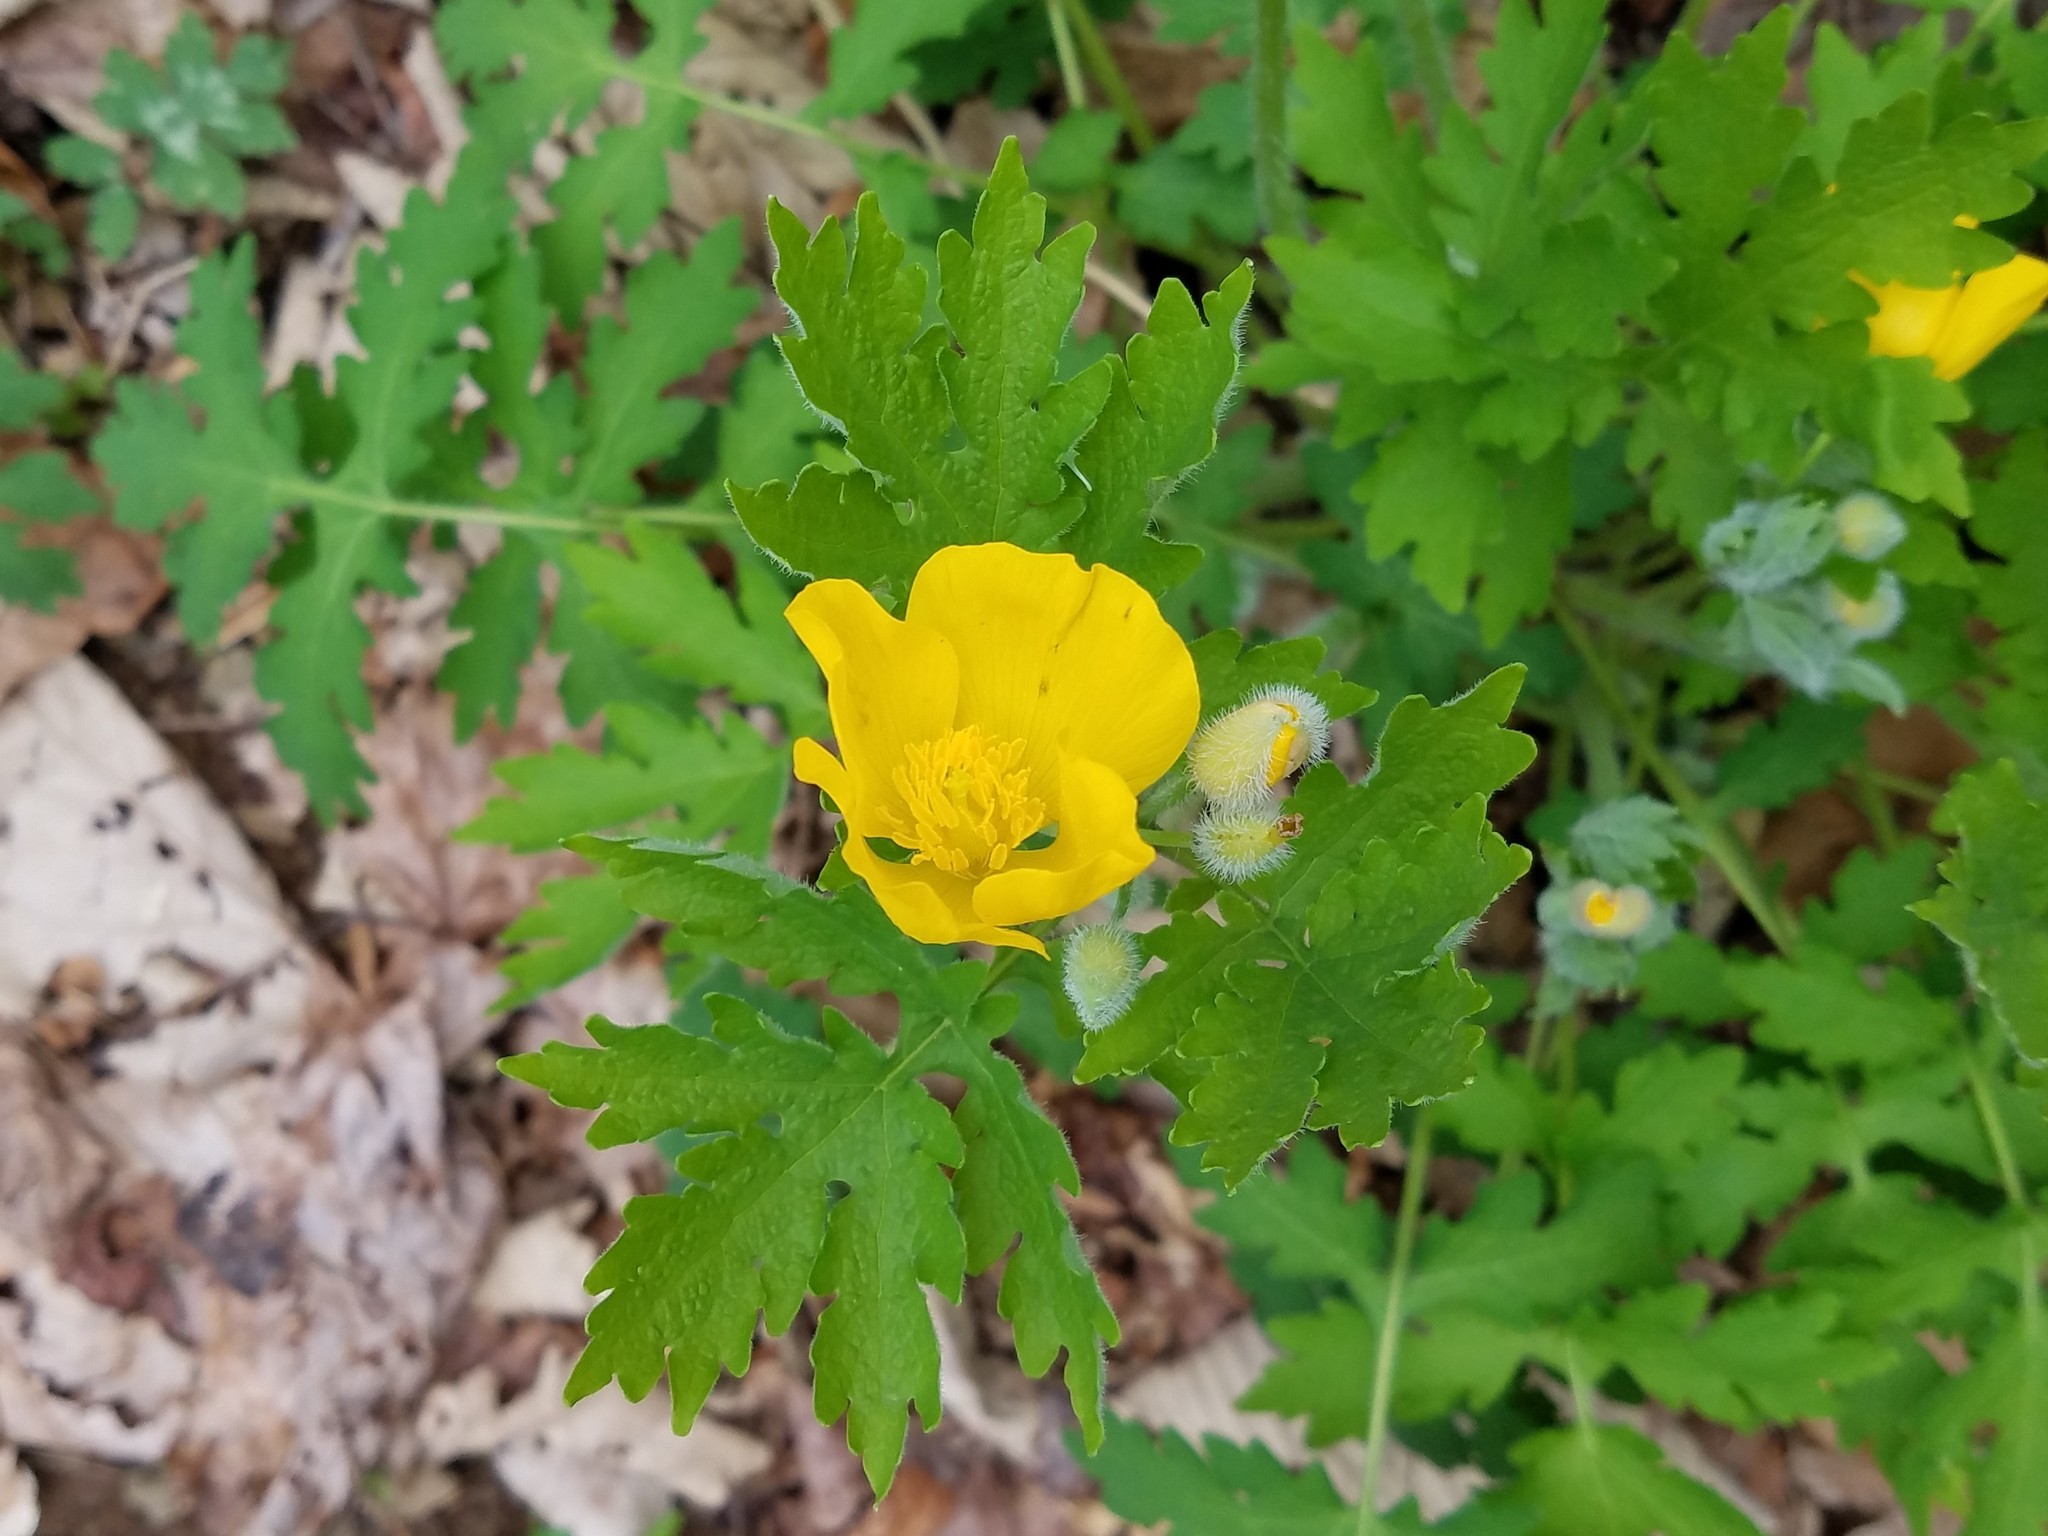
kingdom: Plantae
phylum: Tracheophyta
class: Magnoliopsida
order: Ranunculales
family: Papaveraceae
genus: Stylophorum
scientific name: Stylophorum diphyllum
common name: Celandine poppy
